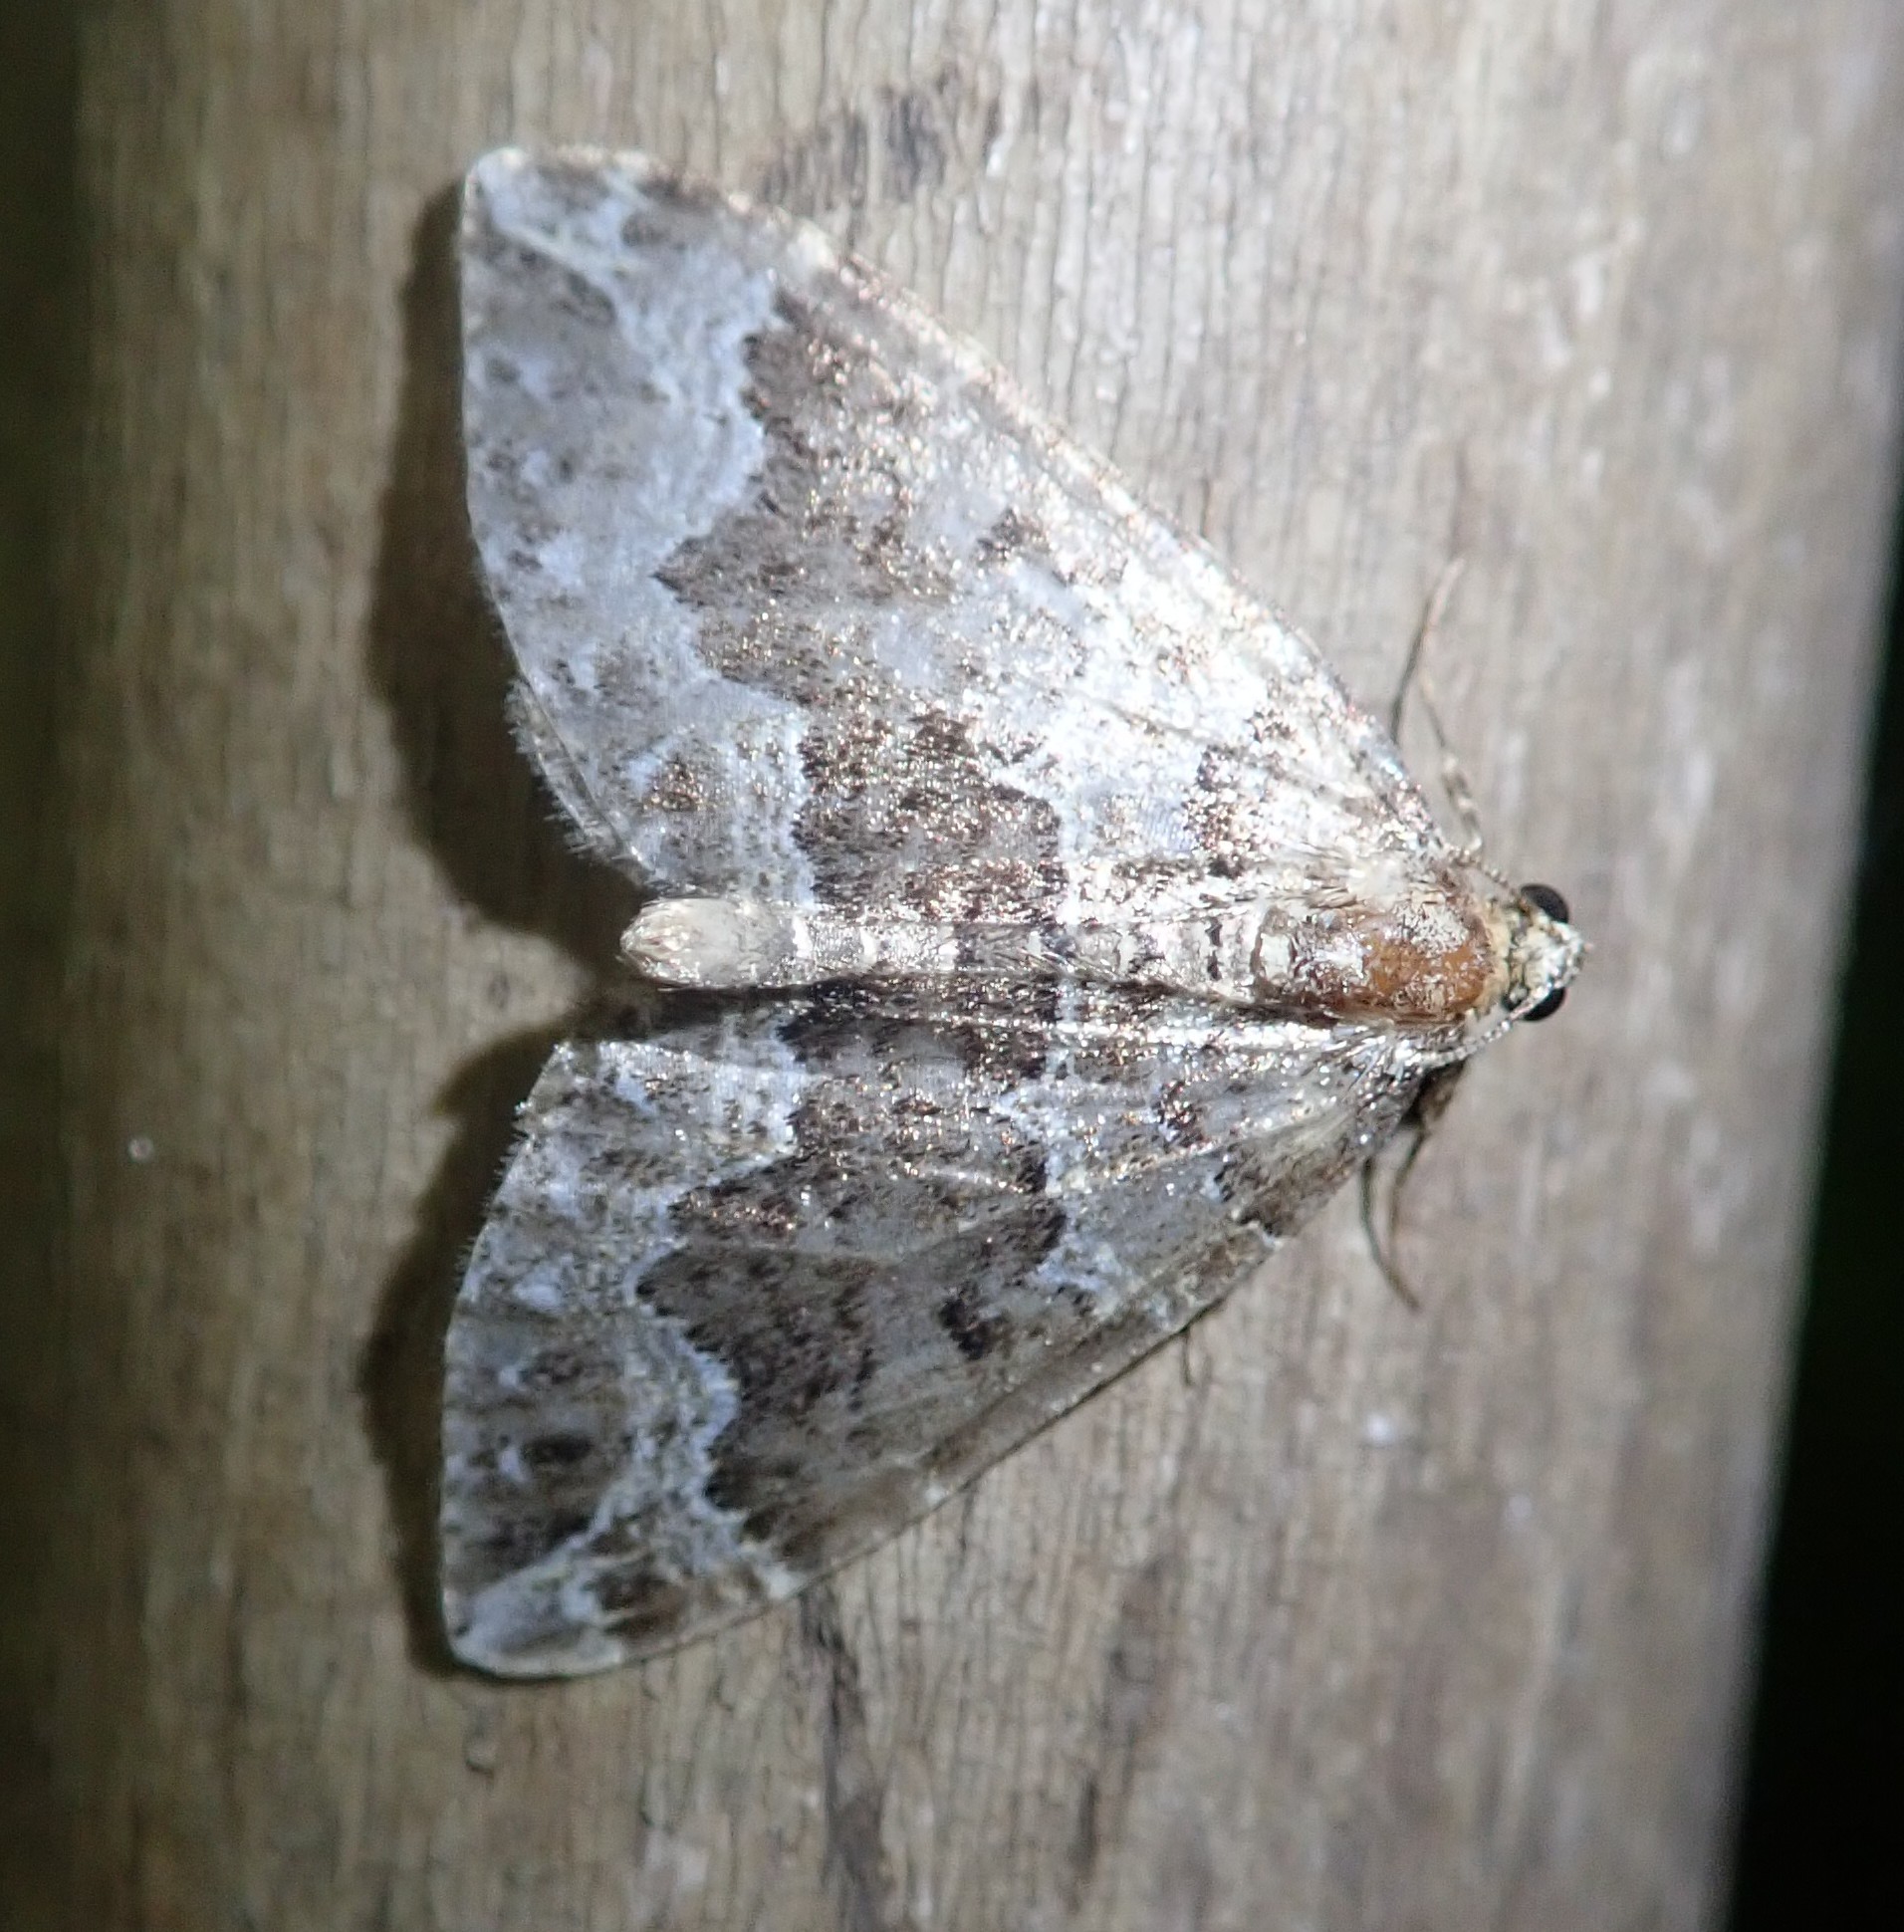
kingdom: Animalia
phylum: Arthropoda
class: Insecta
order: Lepidoptera
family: Geometridae
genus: Lampropteryx
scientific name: Lampropteryx suffumata
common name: Water carpet
